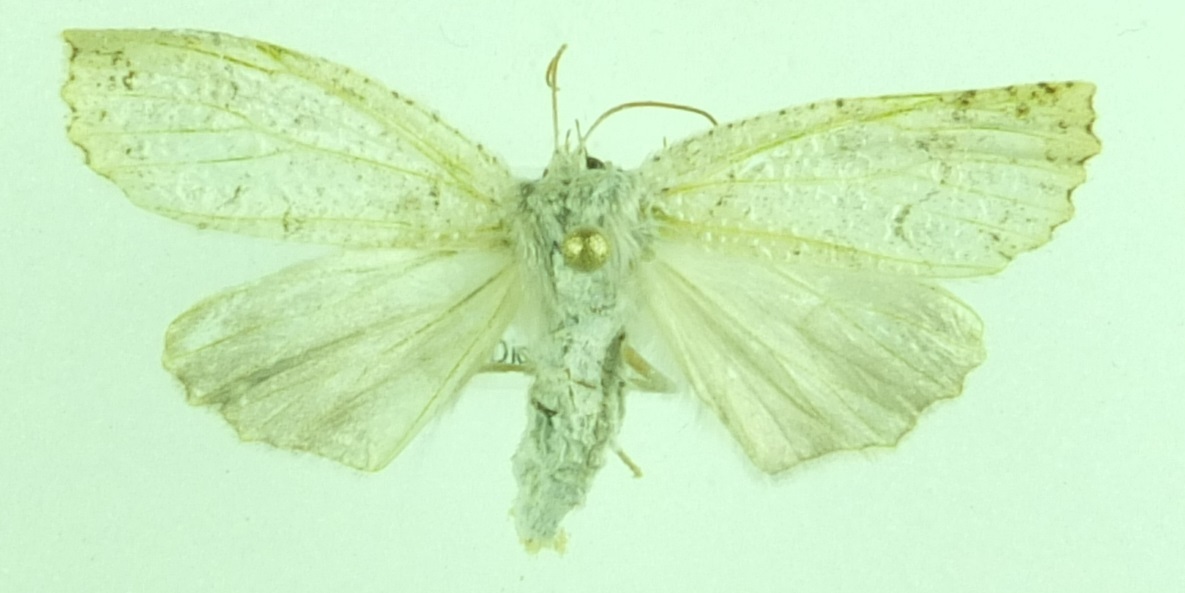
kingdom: Animalia
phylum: Arthropoda
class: Insecta
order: Lepidoptera
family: Geometridae
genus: Declana
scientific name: Declana floccosa
